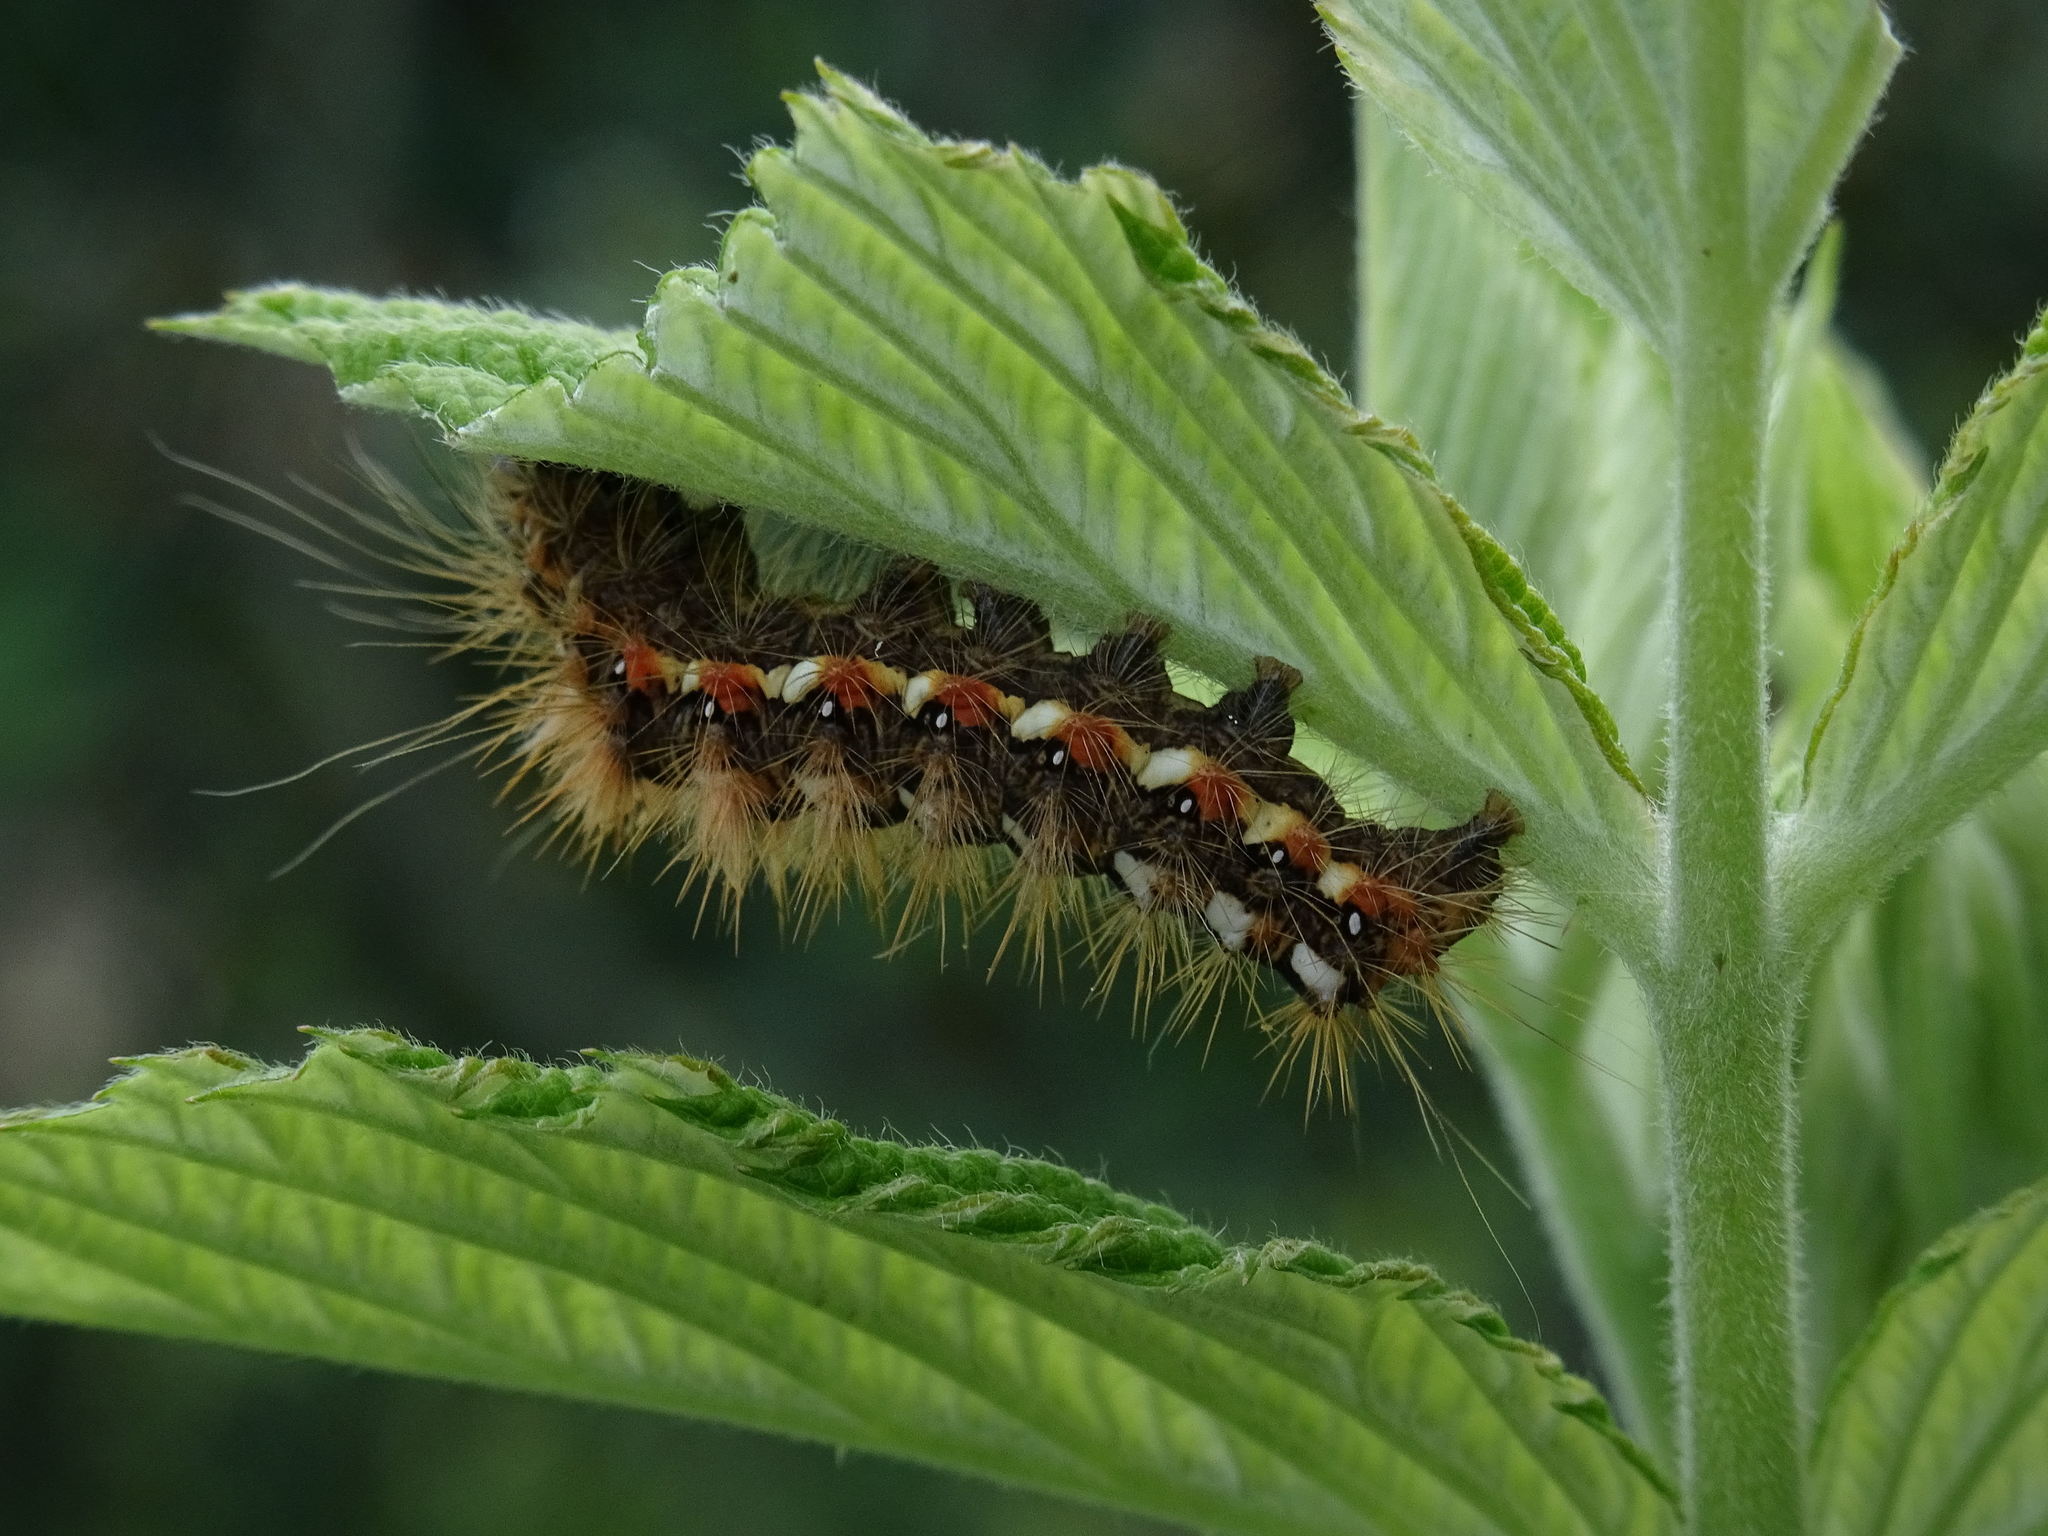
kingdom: Animalia
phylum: Arthropoda
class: Insecta
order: Lepidoptera
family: Noctuidae
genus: Acronicta
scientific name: Acronicta rumicis
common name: Knot grass
